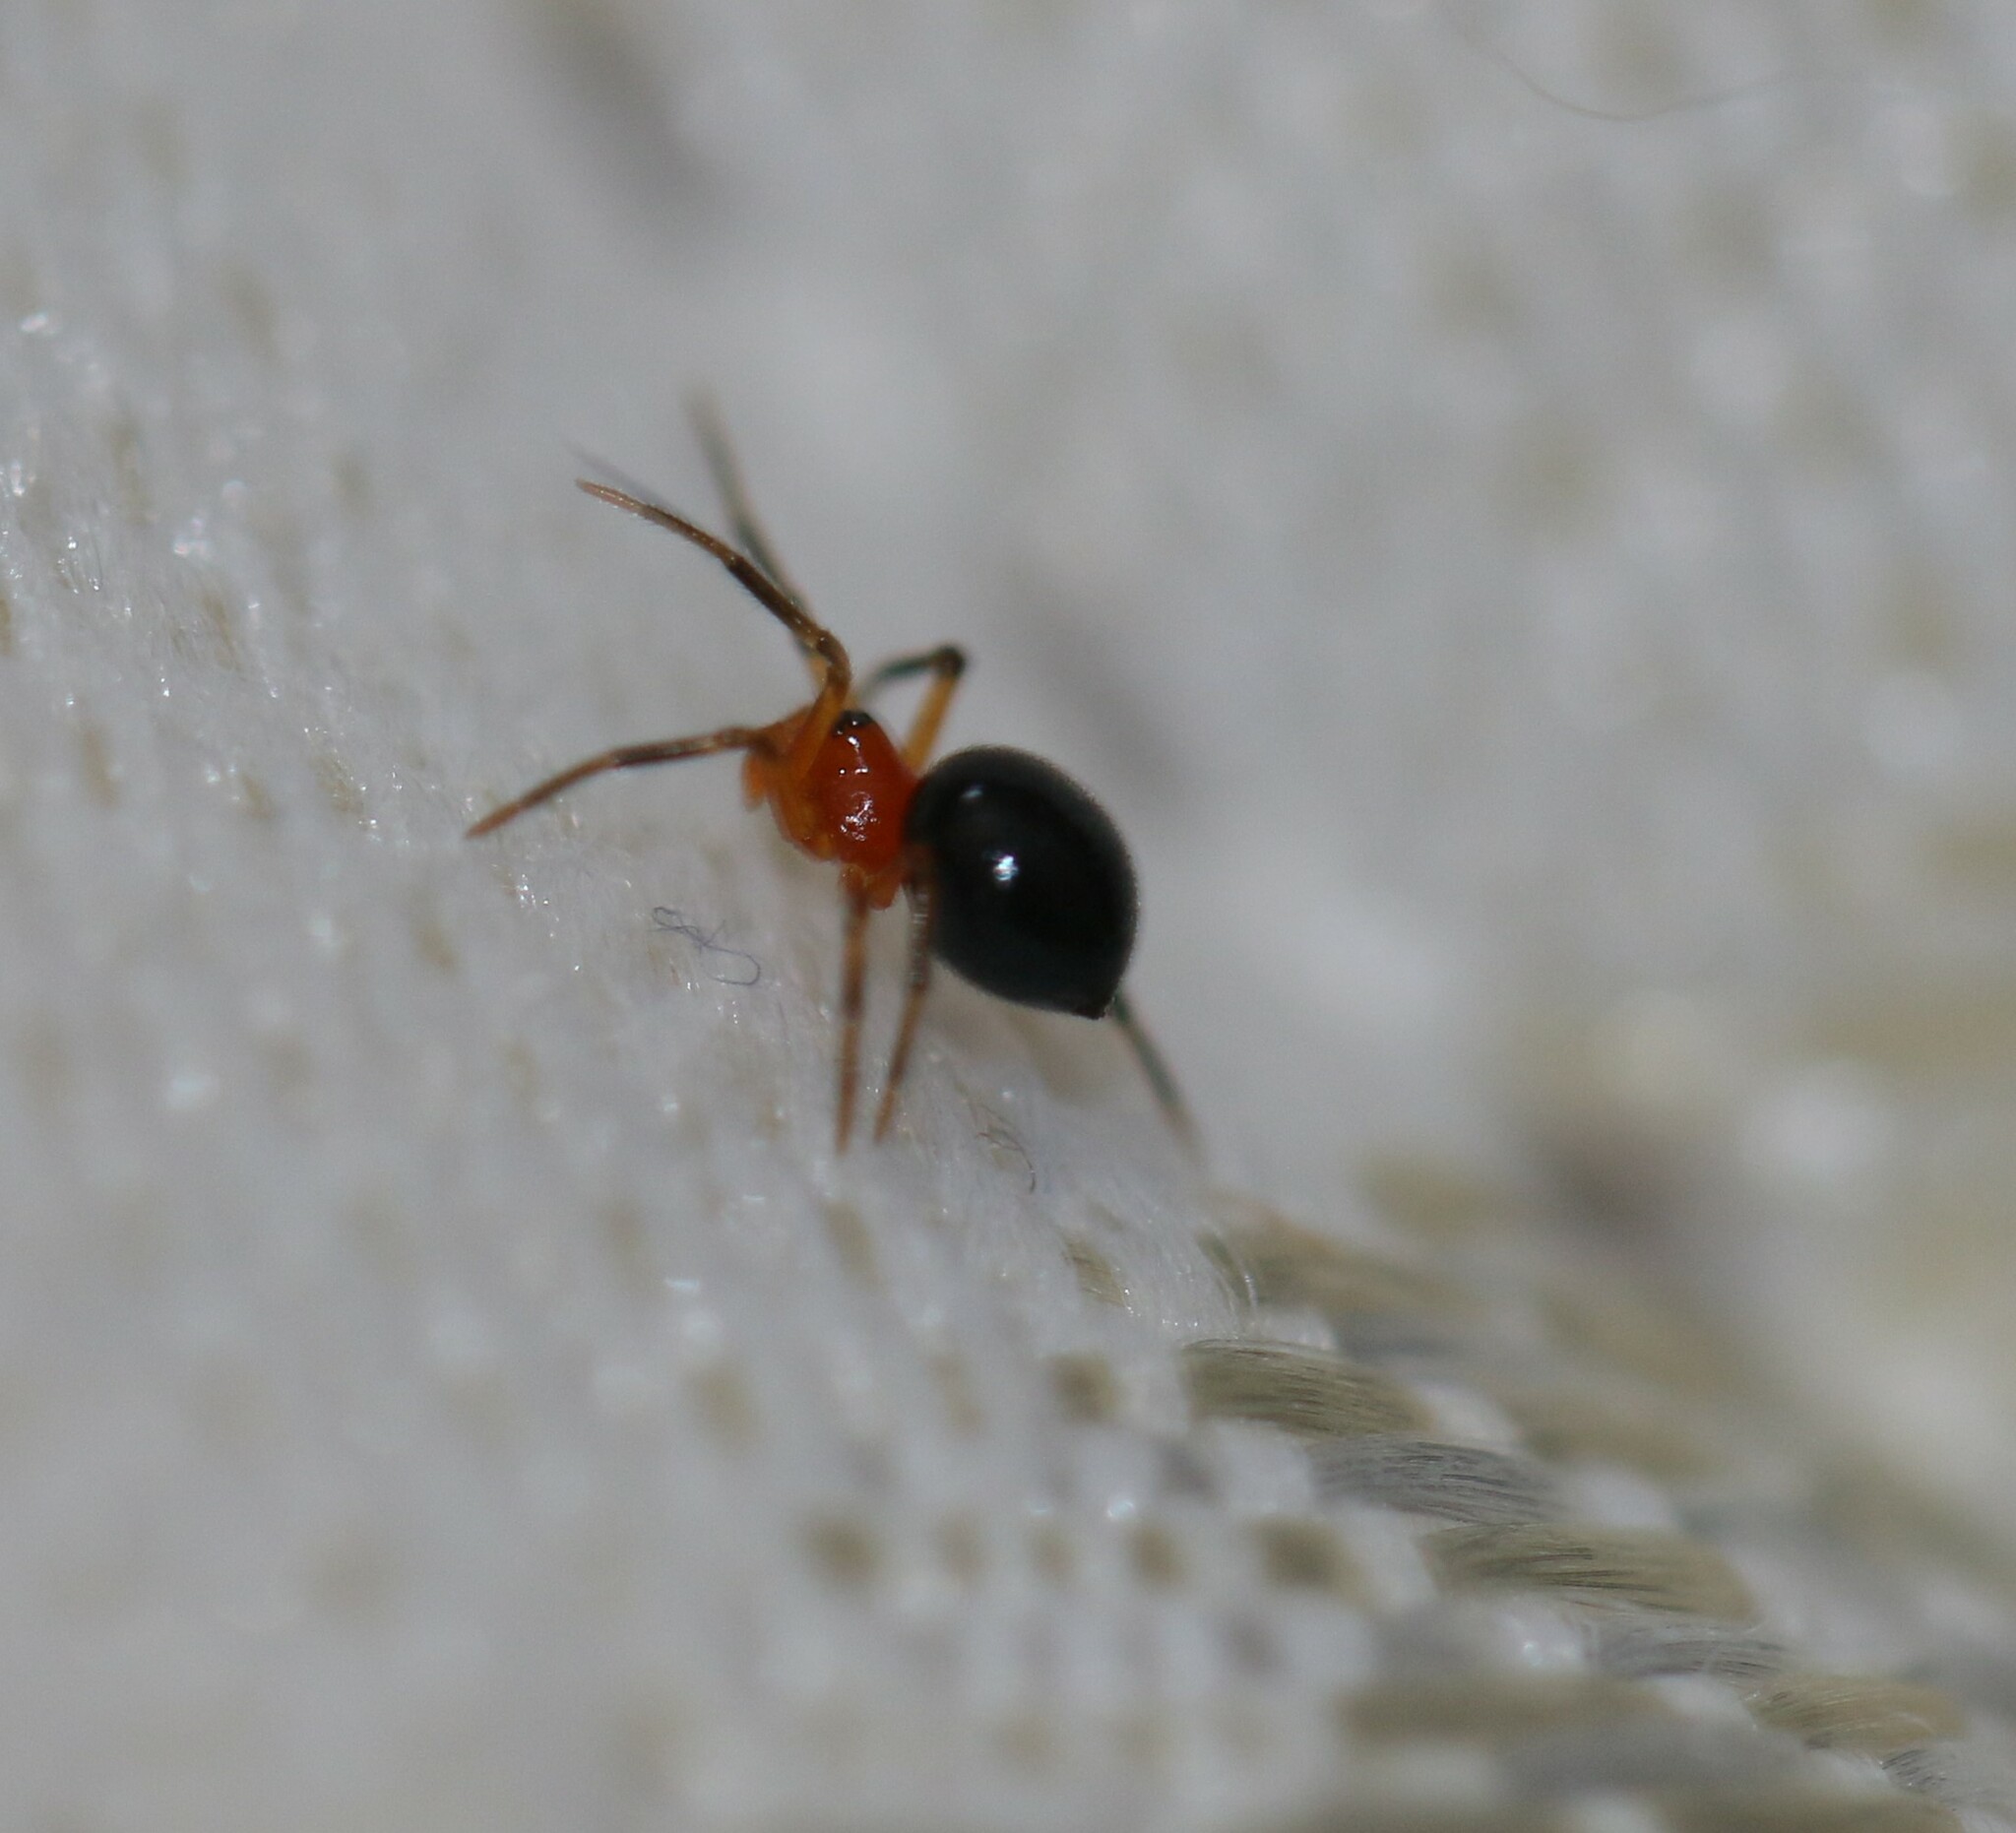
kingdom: Animalia
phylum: Arthropoda
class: Arachnida
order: Araneae
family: Linyphiidae
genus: Hypselistes
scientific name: Hypselistes florens
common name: Peatland sheetweb weaver
